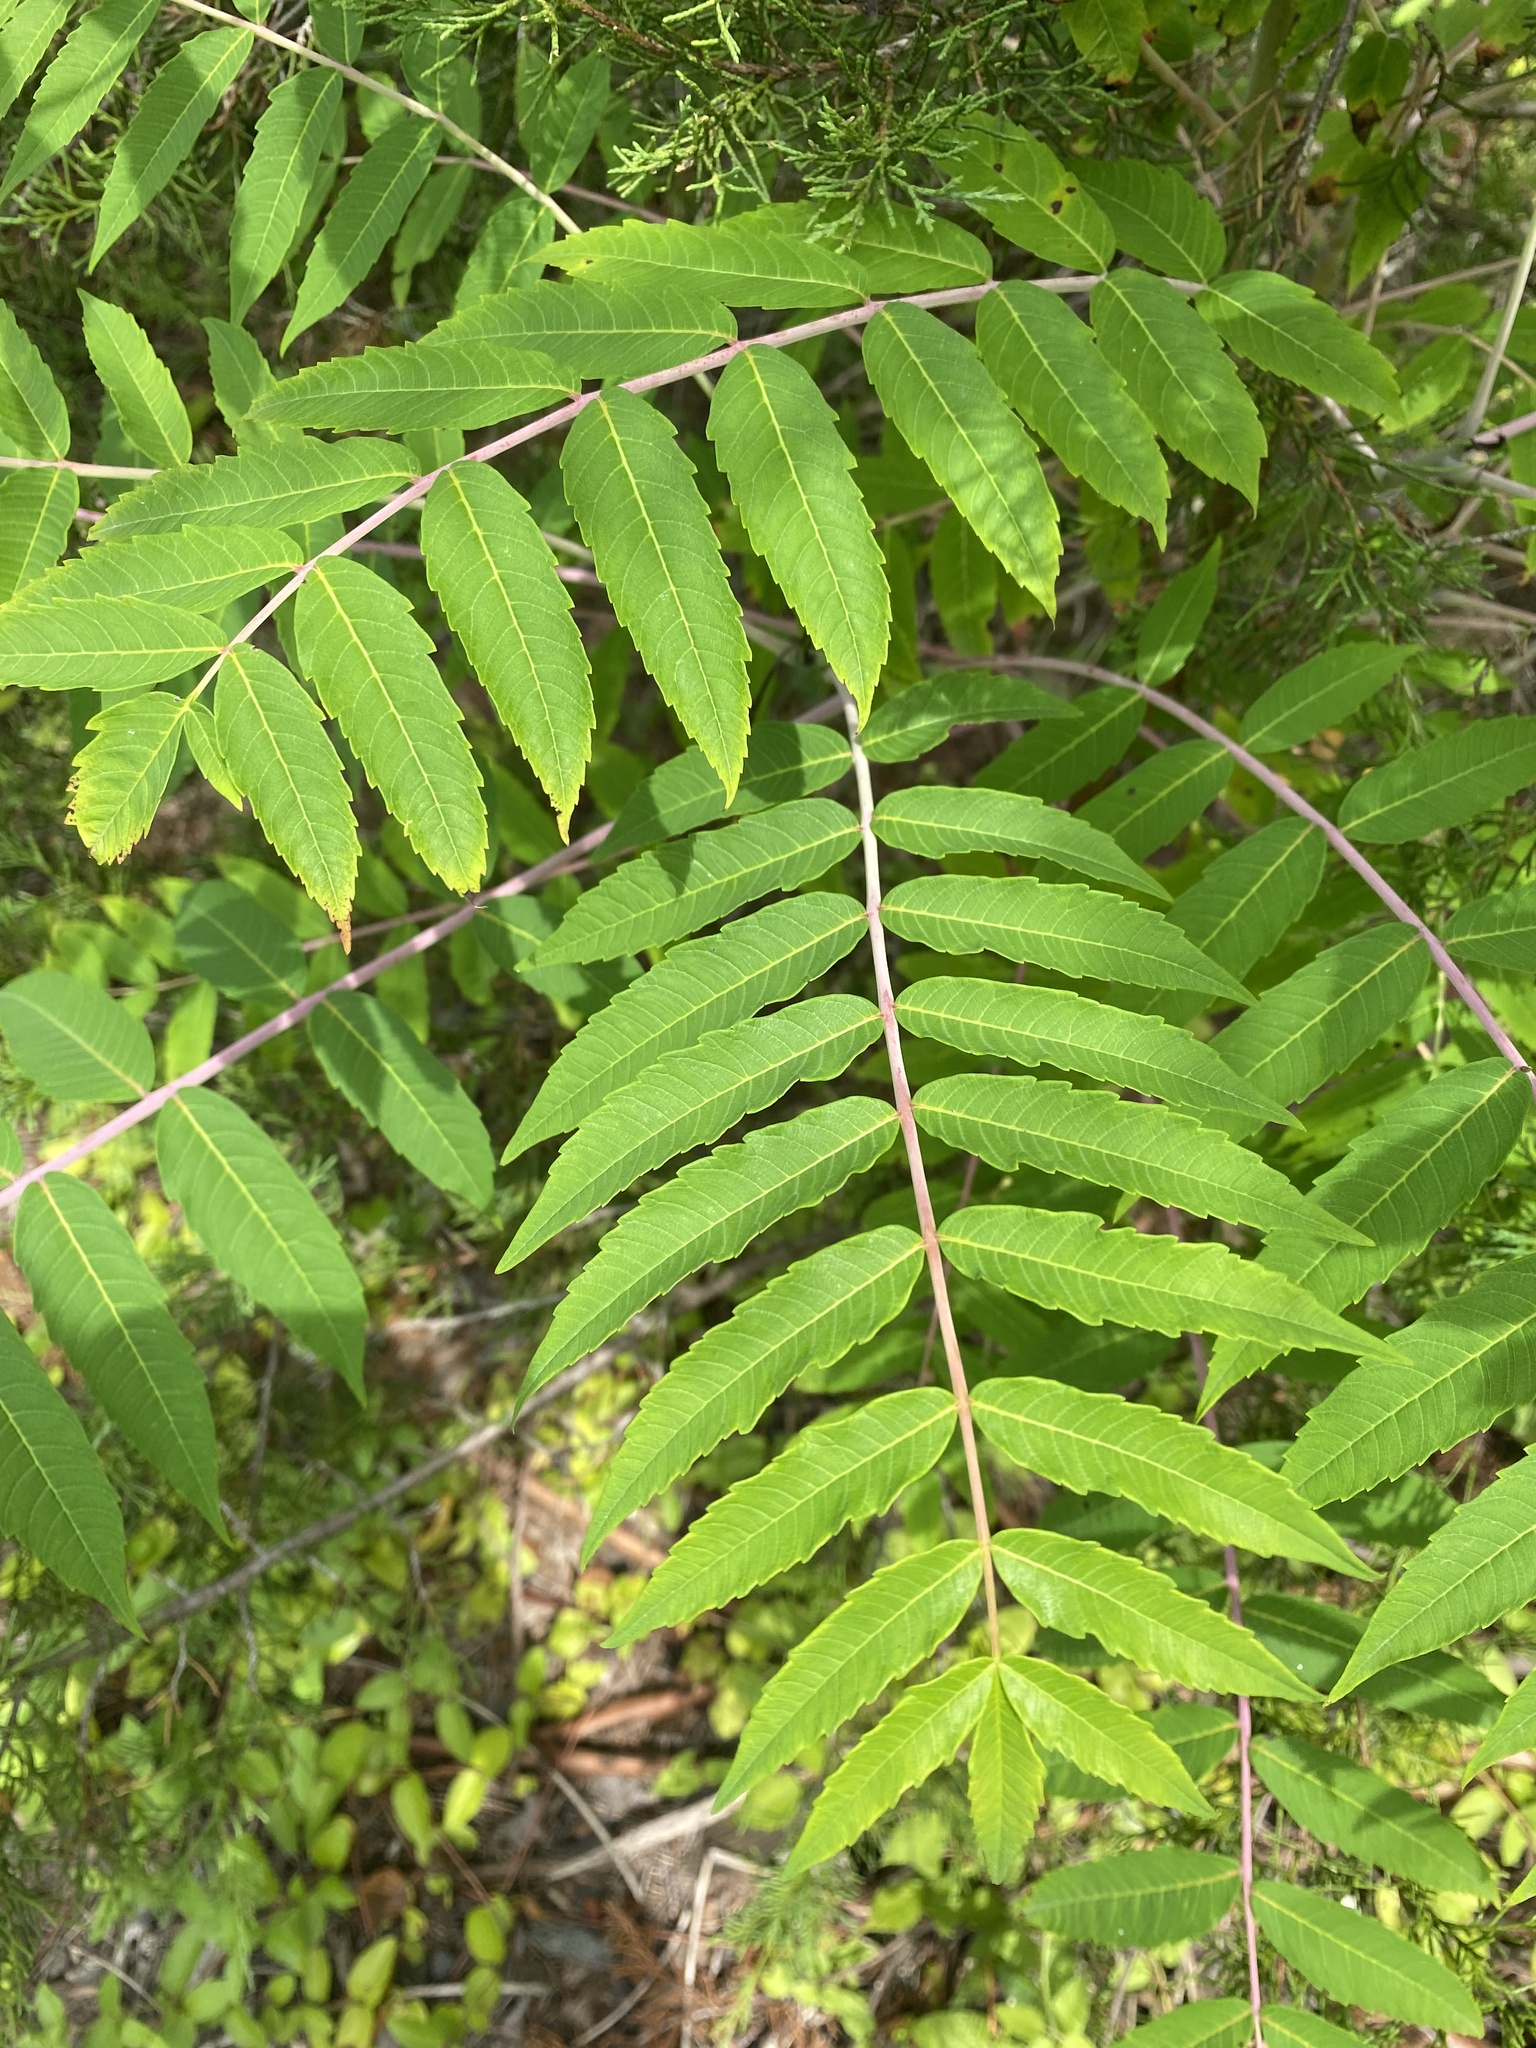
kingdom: Plantae
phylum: Tracheophyta
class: Magnoliopsida
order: Sapindales
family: Anacardiaceae
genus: Rhus
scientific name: Rhus glabra
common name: Scarlet sumac
